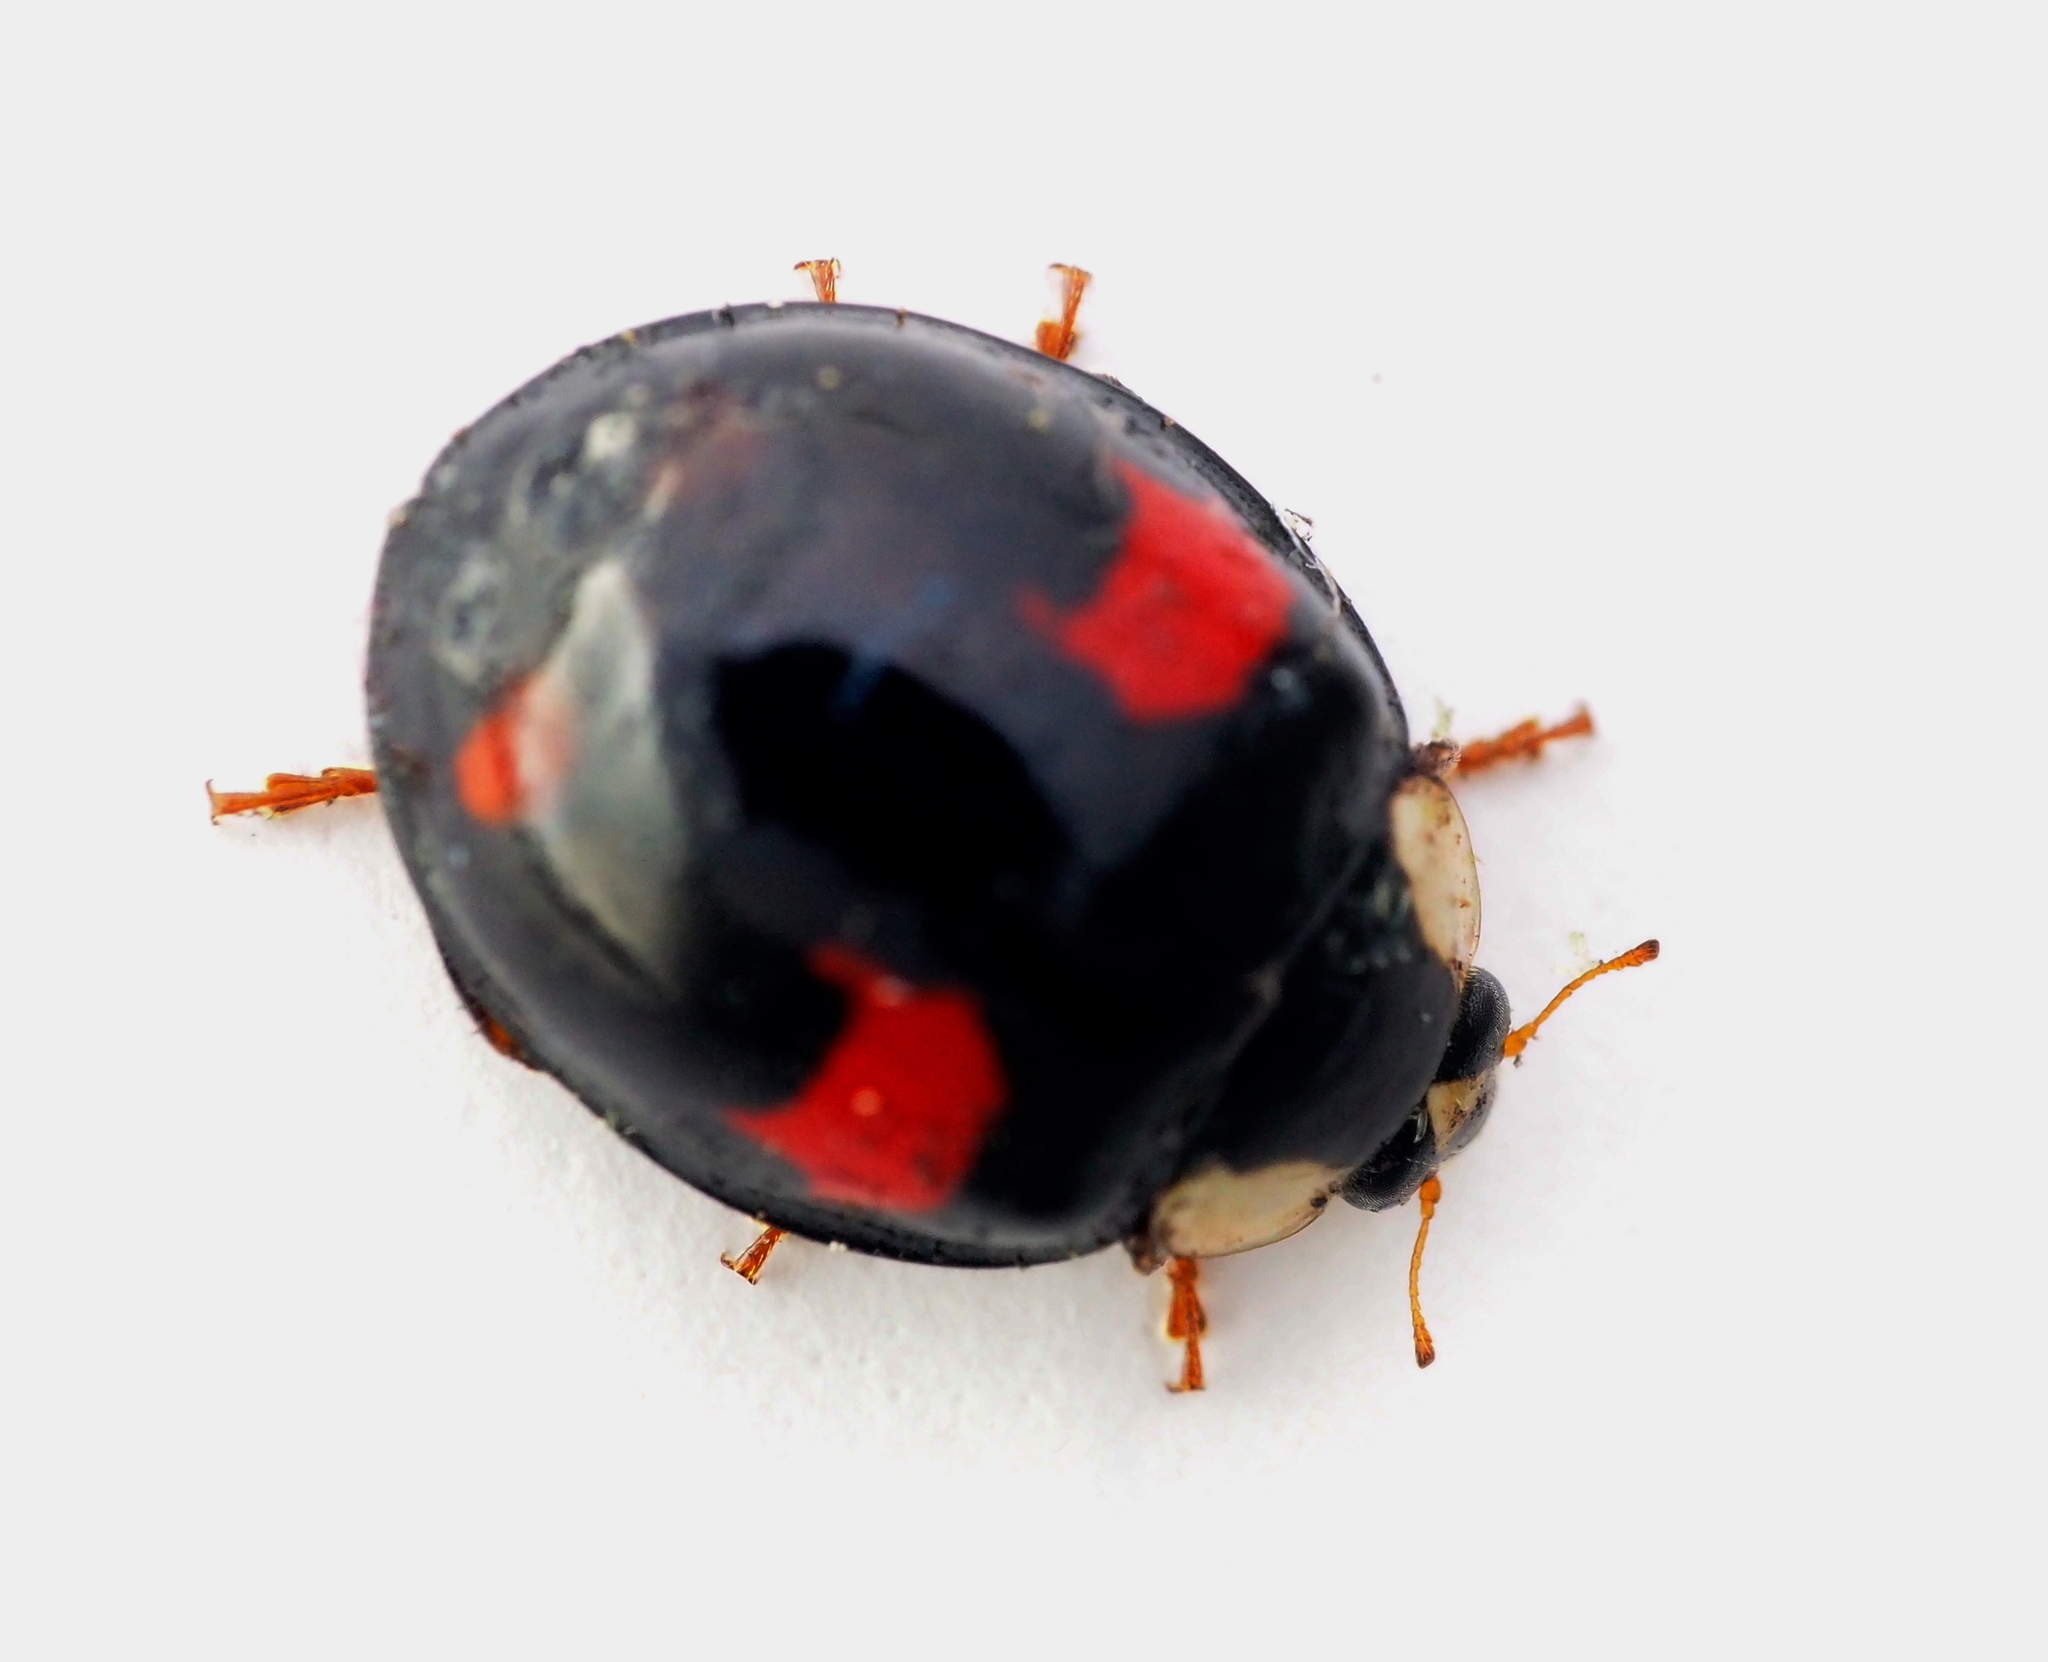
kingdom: Animalia
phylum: Arthropoda
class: Insecta
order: Coleoptera
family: Coccinellidae
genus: Harmonia
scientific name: Harmonia axyridis
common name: Harlequin ladybird
